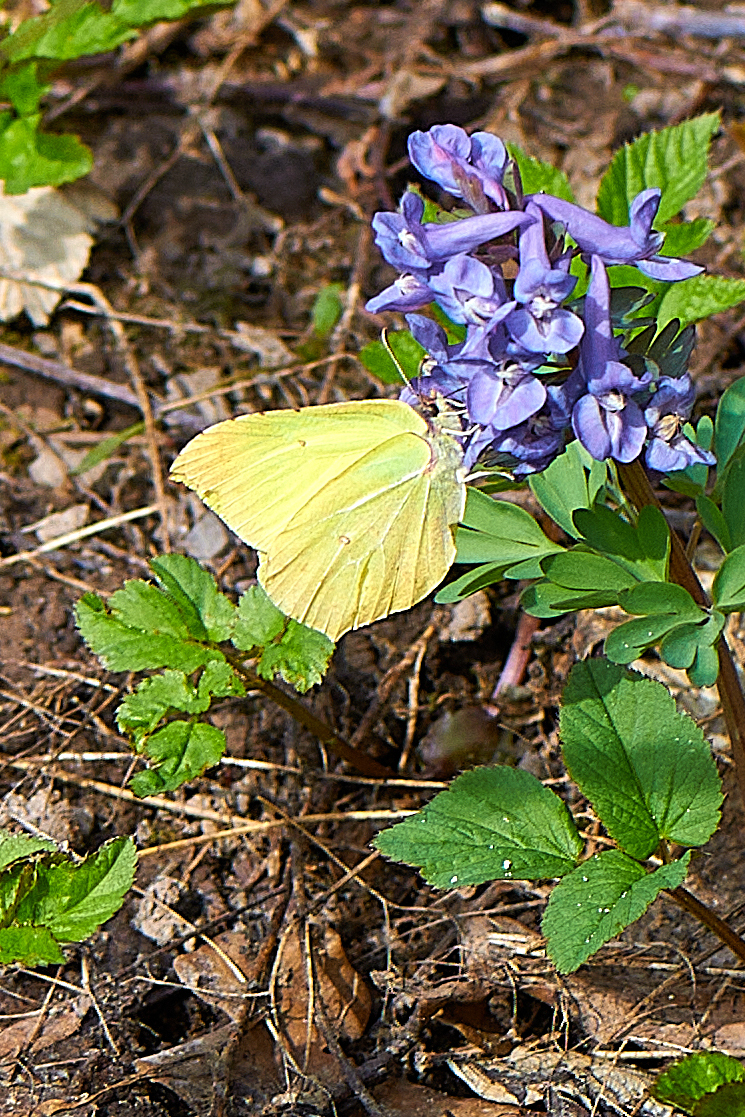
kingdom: Animalia
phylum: Arthropoda
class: Insecta
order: Lepidoptera
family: Pieridae
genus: Gonepteryx
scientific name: Gonepteryx rhamni
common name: Brimstone
